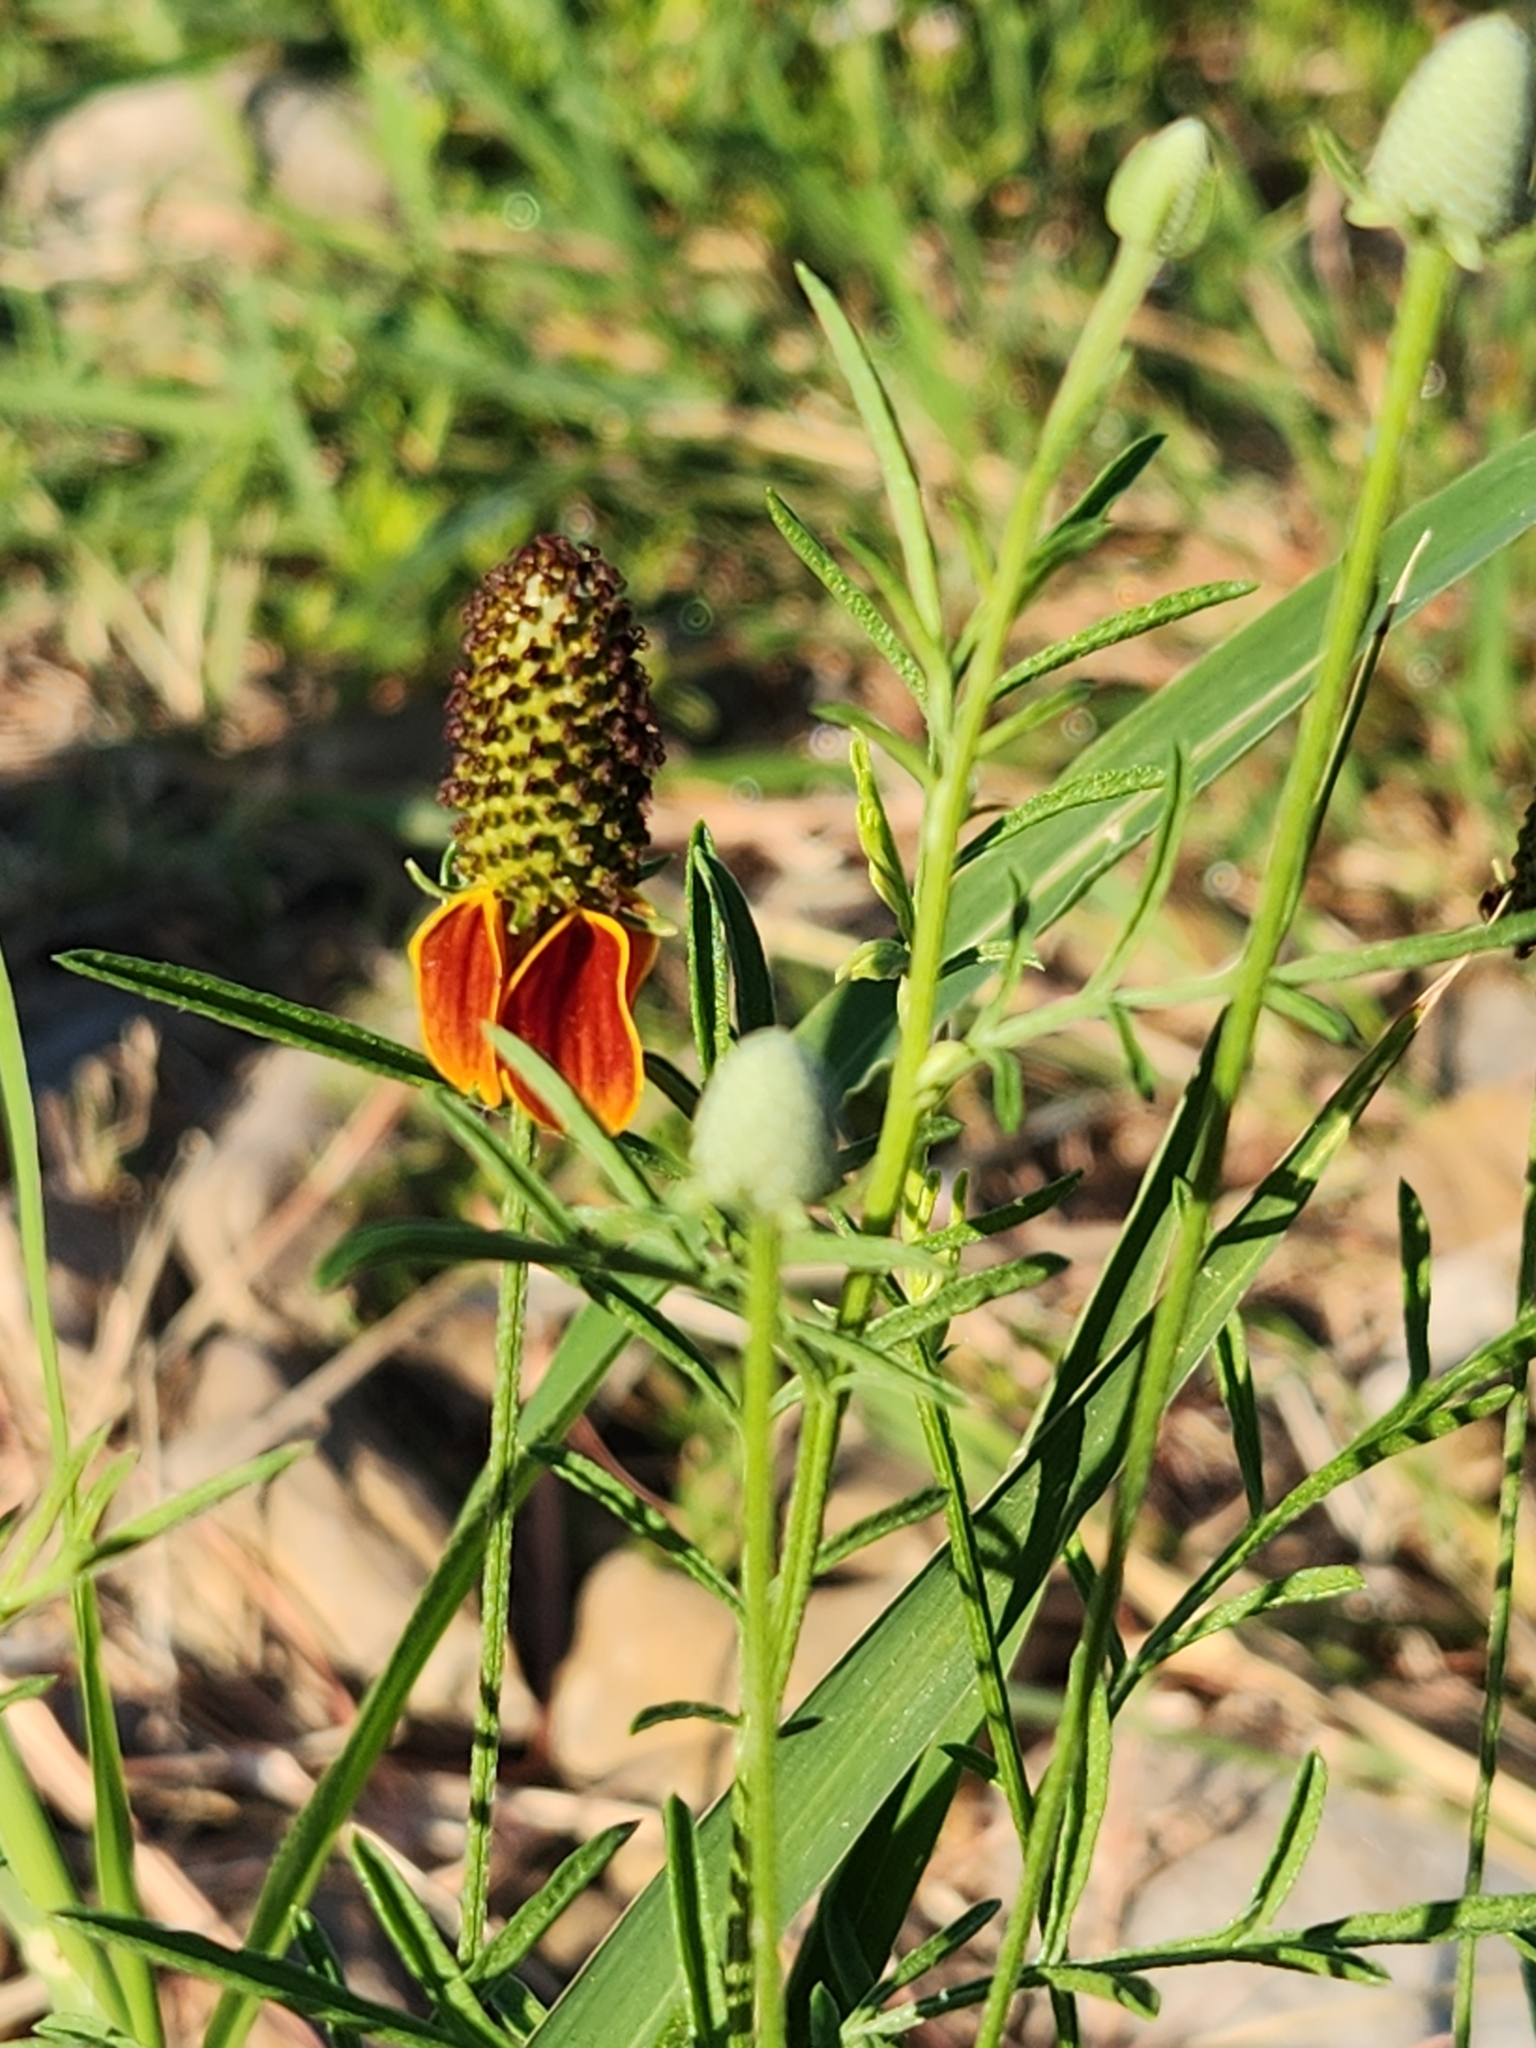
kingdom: Plantae
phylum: Tracheophyta
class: Magnoliopsida
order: Asterales
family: Asteraceae
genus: Ratibida
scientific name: Ratibida columnifera
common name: Prairie coneflower
